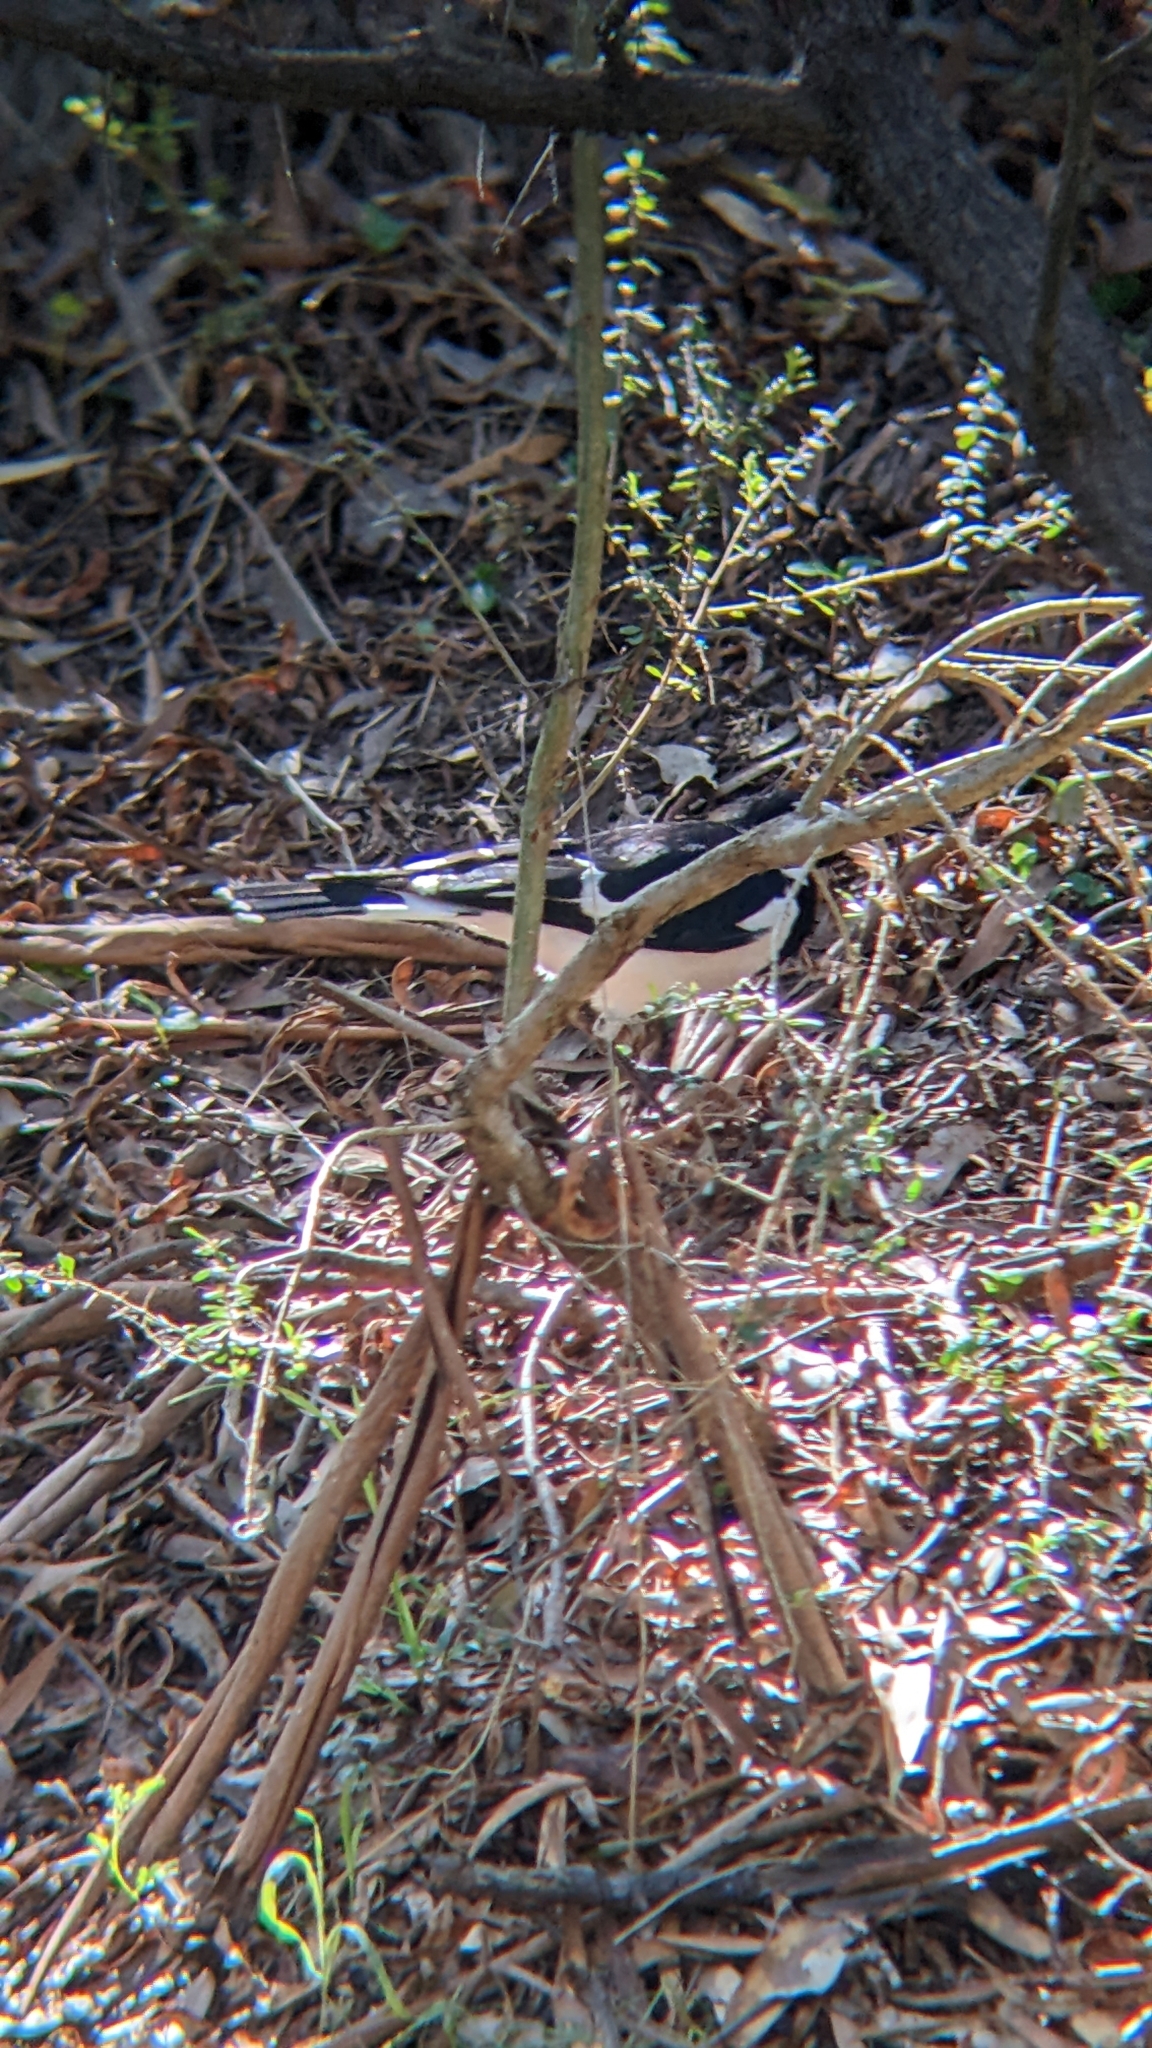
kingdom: Animalia
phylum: Chordata
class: Aves
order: Passeriformes
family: Monarchidae
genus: Grallina
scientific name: Grallina cyanoleuca
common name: Magpie-lark
